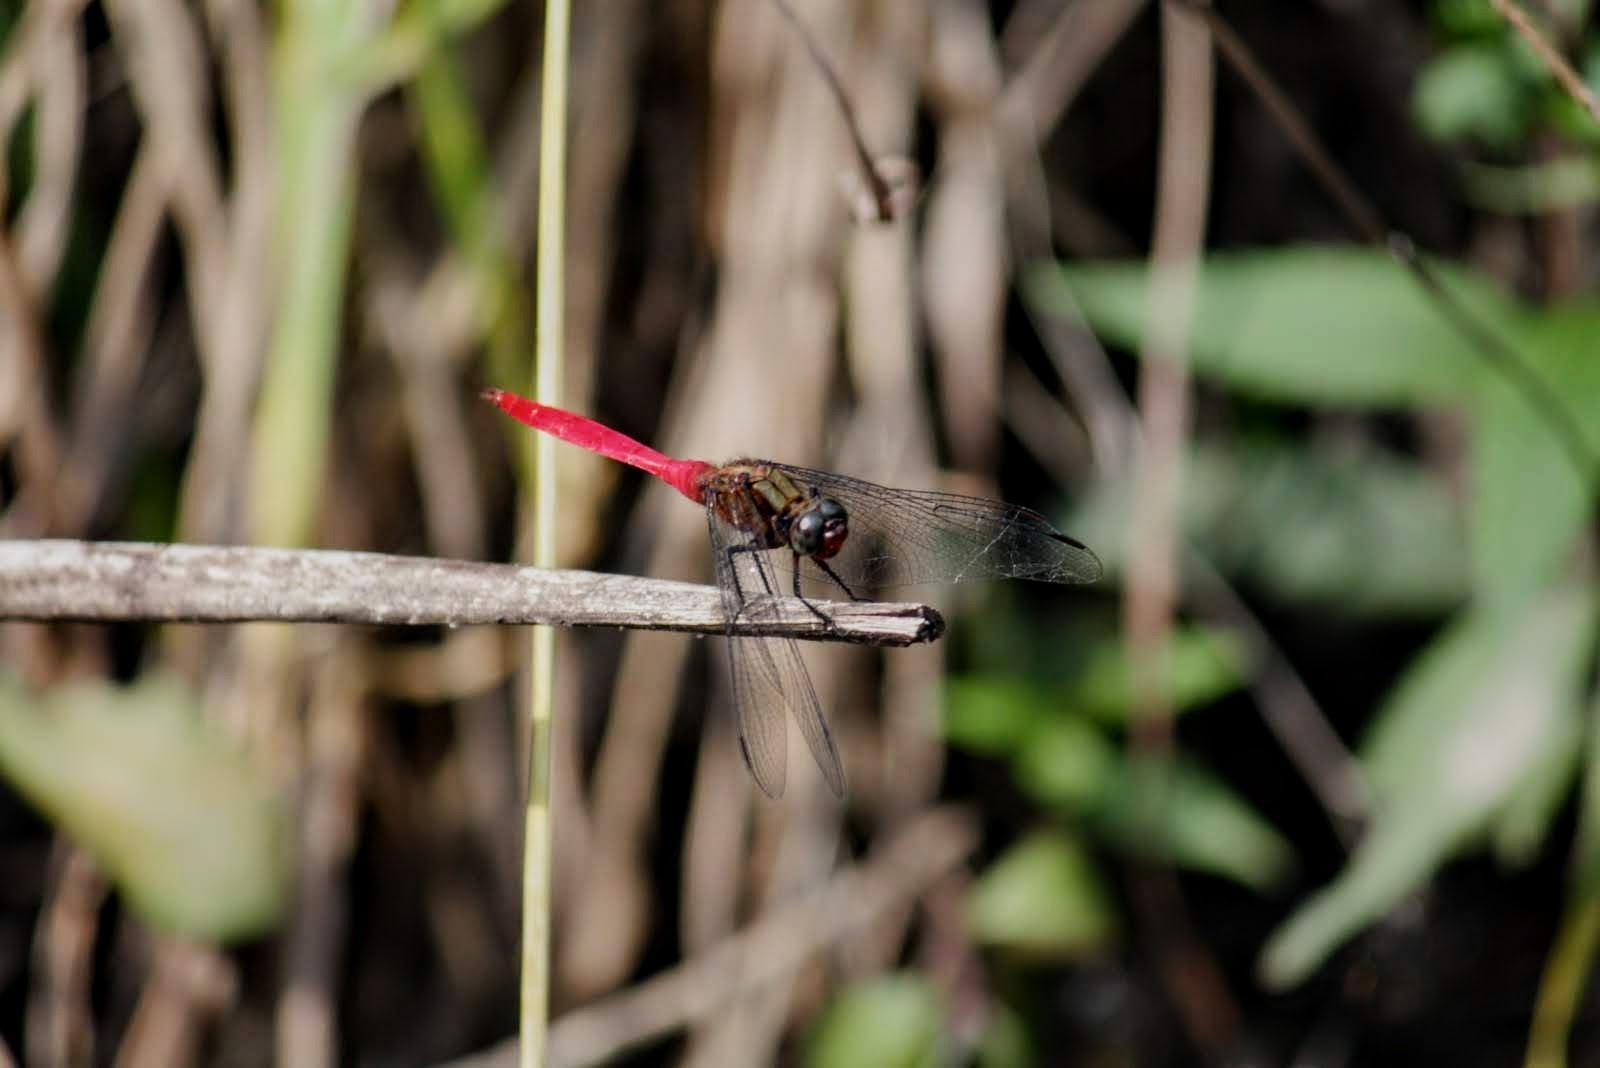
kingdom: Animalia
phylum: Arthropoda
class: Insecta
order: Odonata
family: Libellulidae
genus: Orthetrum
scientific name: Orthetrum villosovittatum
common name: Firery skimmer
